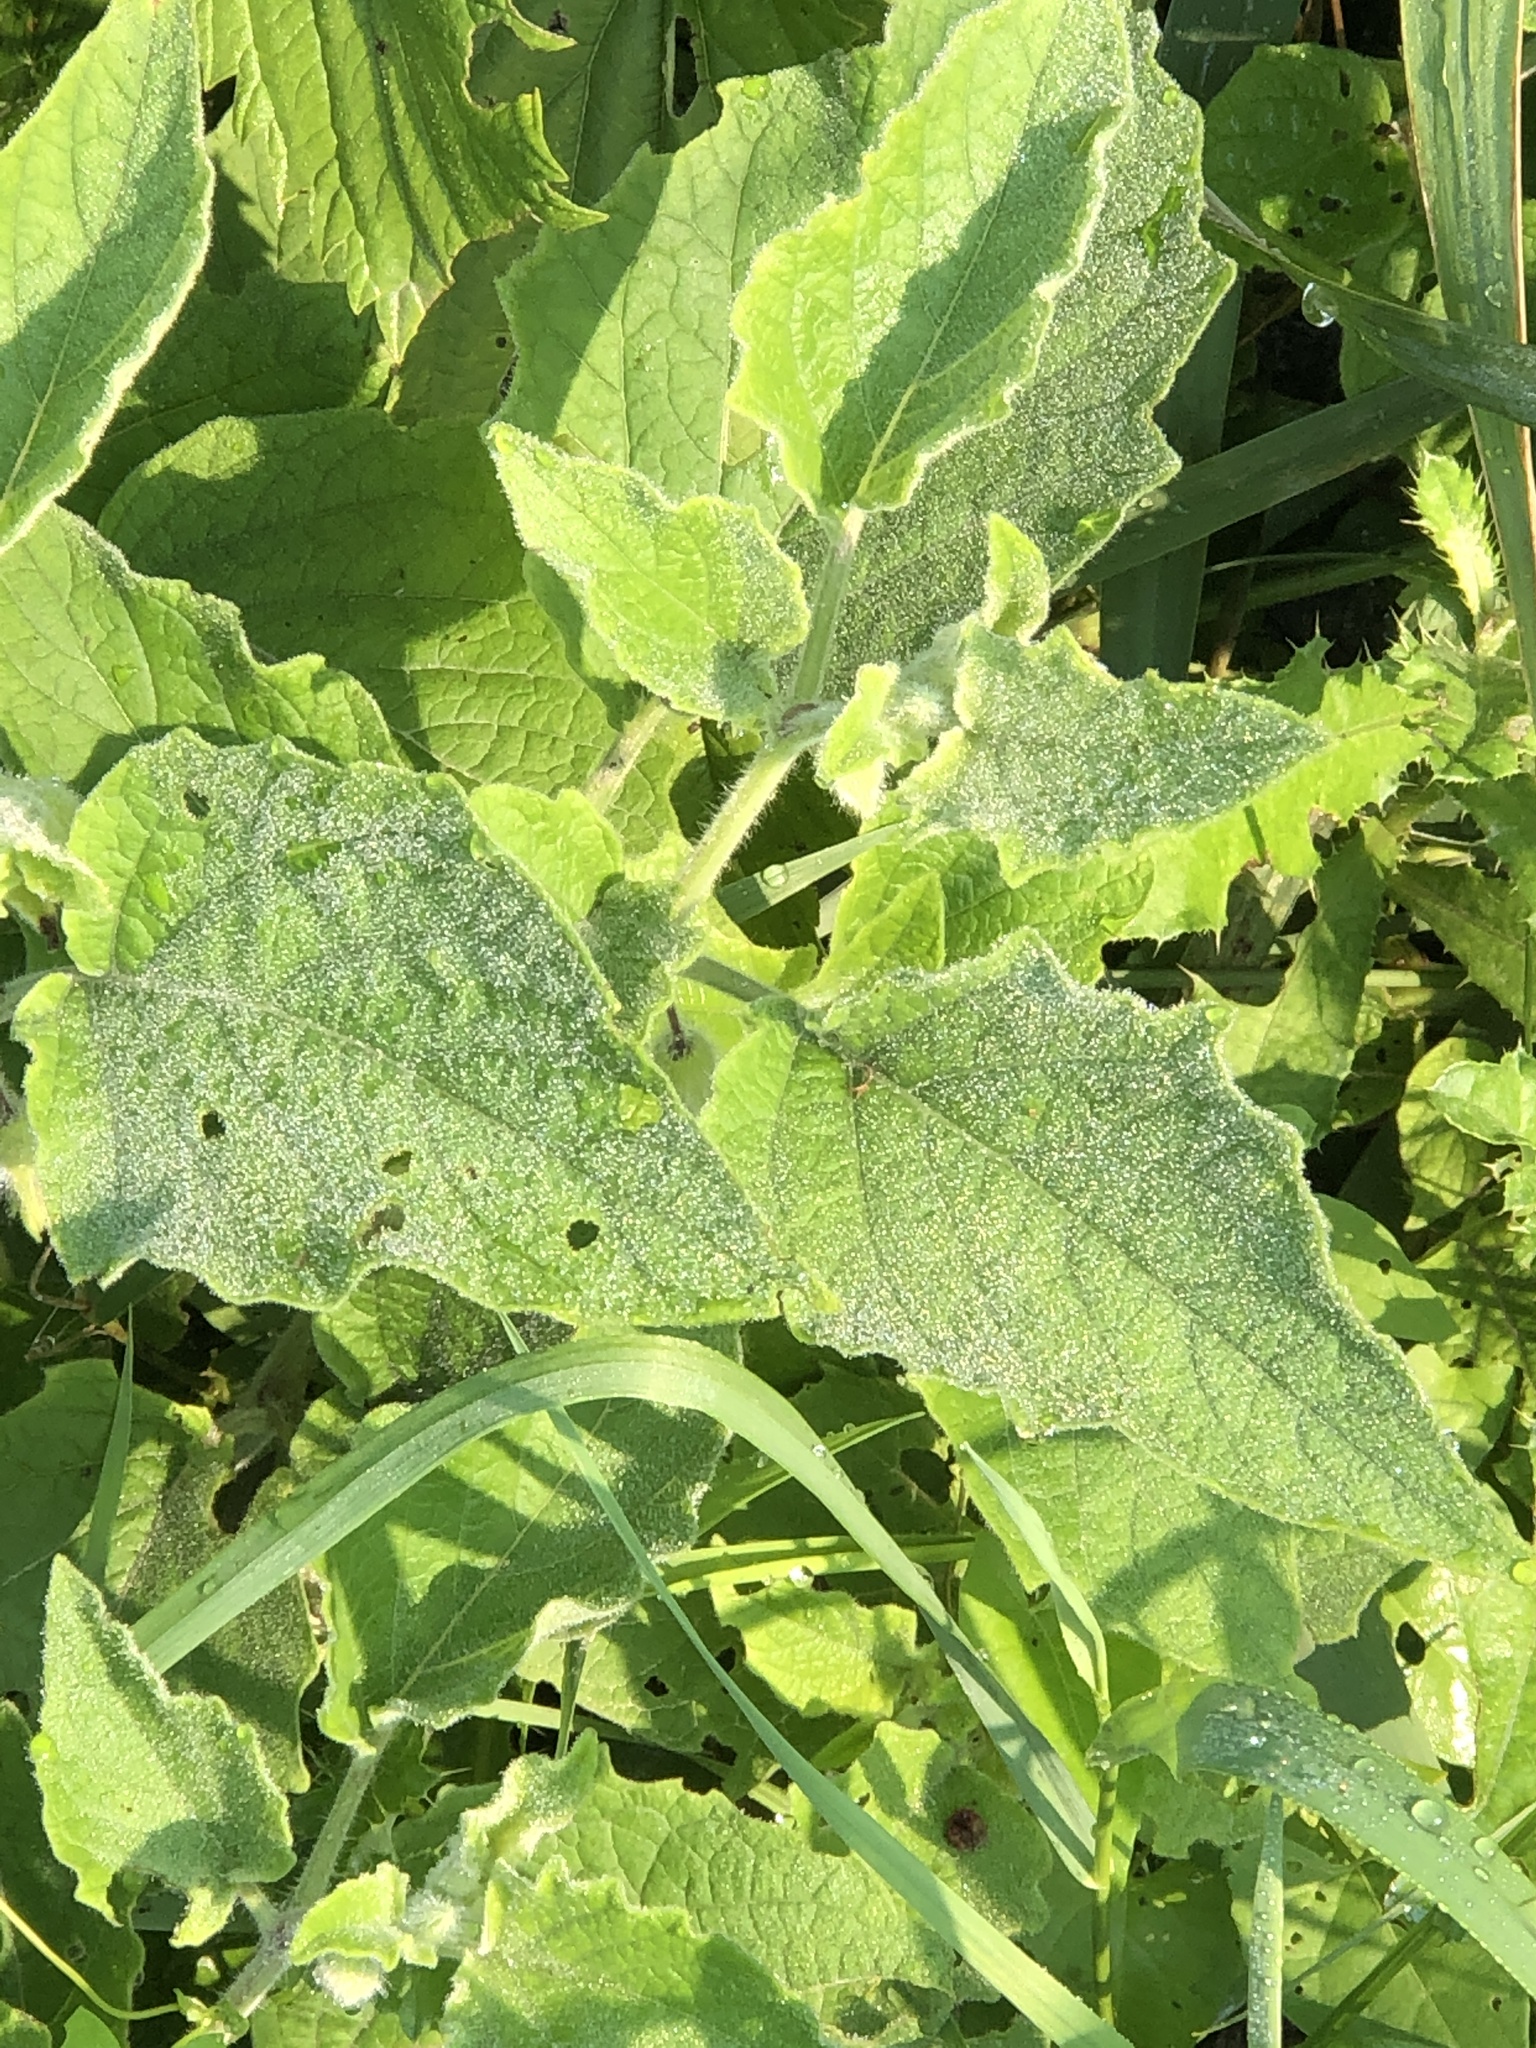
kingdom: Plantae
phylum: Tracheophyta
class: Magnoliopsida
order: Solanales
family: Solanaceae
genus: Physalis
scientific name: Physalis heterophylla
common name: Clammy ground-cherry
